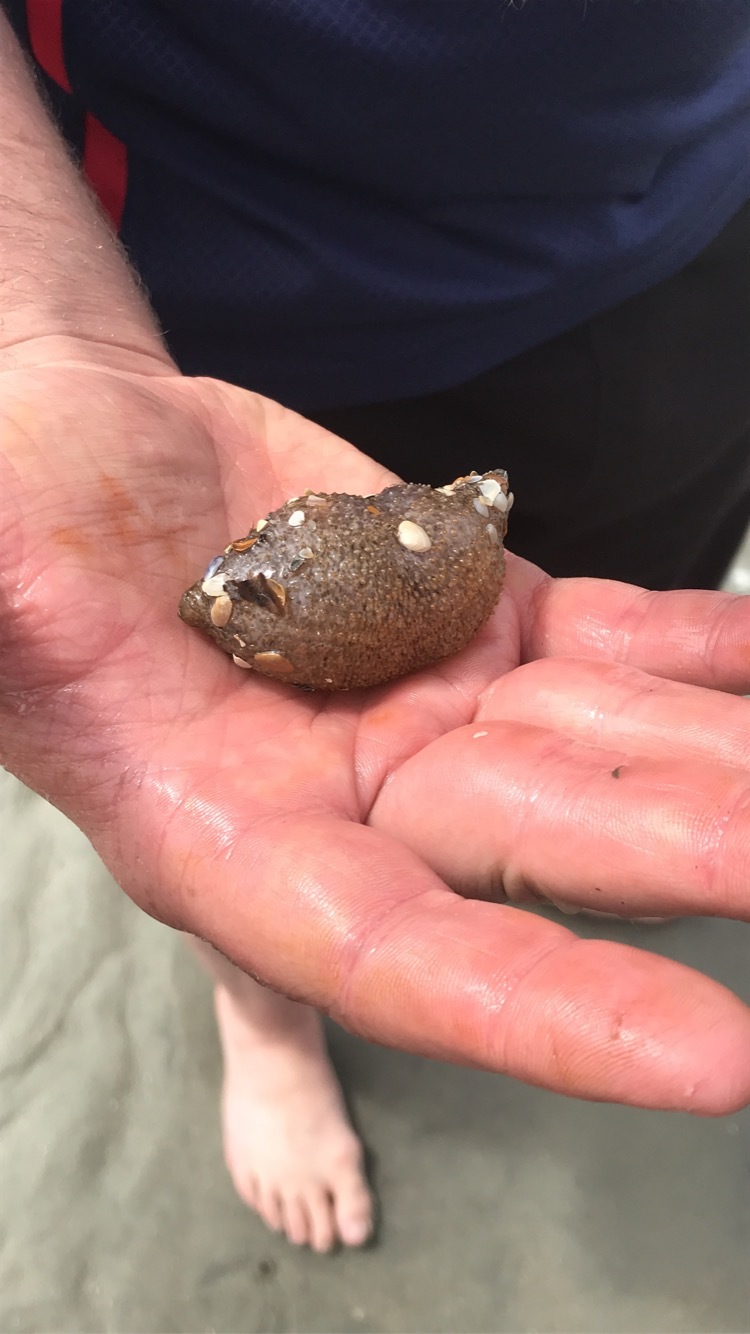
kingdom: Animalia
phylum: Echinodermata
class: Holothuroidea
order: Dendrochirotida
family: Sclerodactylidae
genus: Sclerodactyla
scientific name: Sclerodactyla briareus
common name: Hard-fingered sea cucumber
